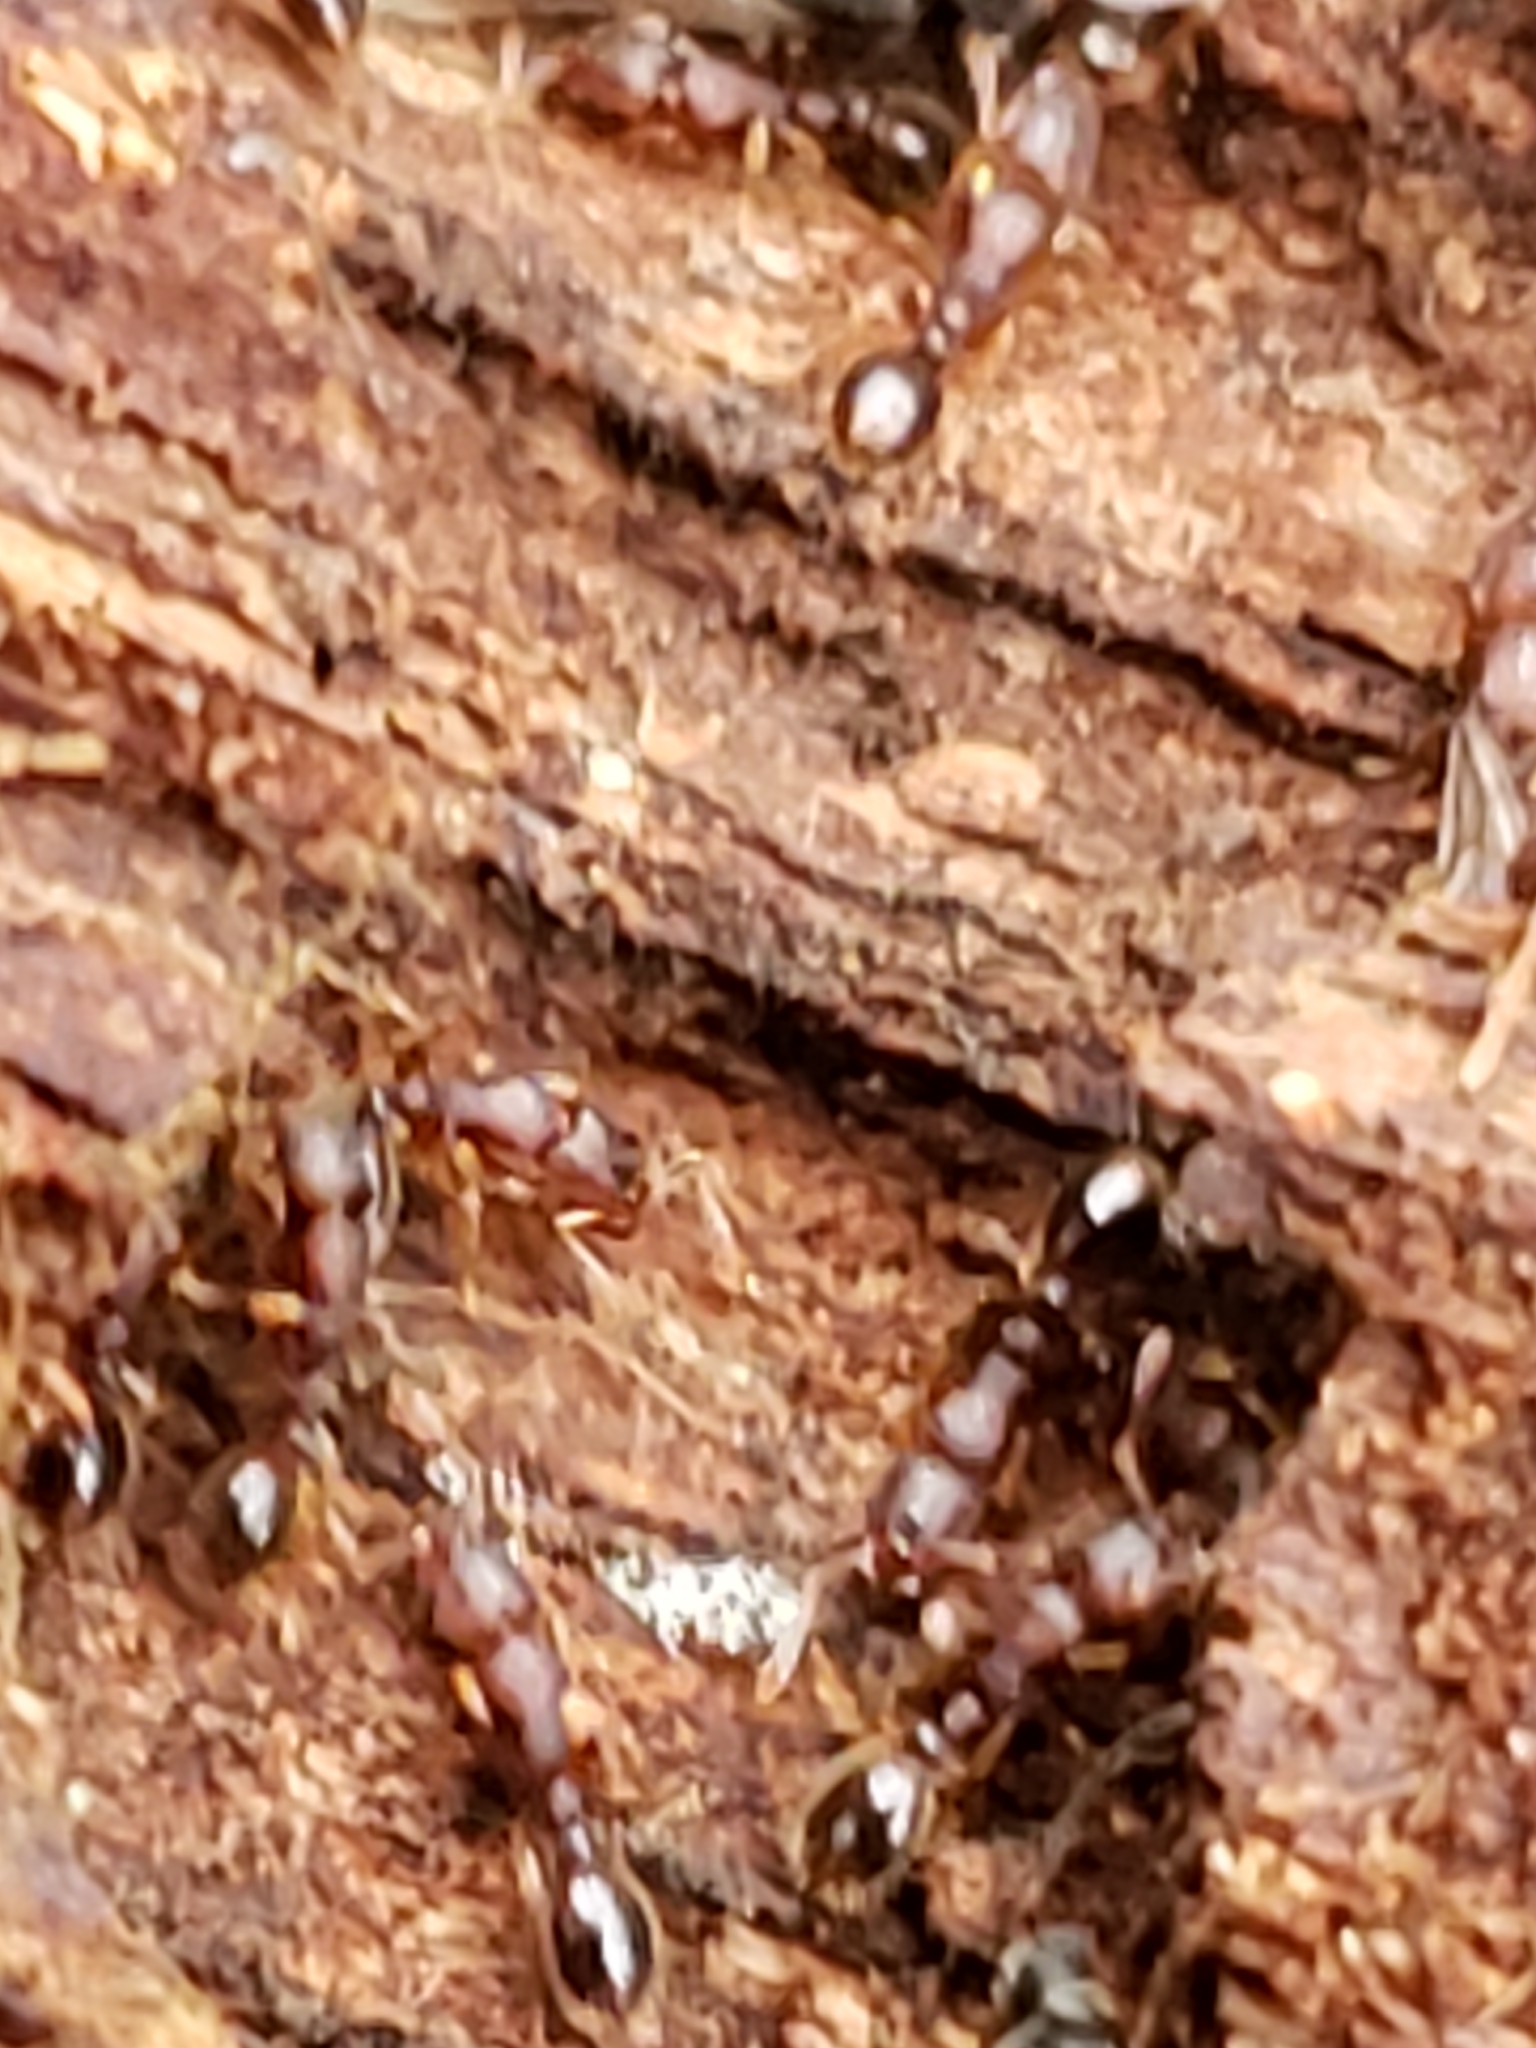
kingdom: Animalia
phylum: Arthropoda
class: Insecta
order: Hymenoptera
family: Formicidae
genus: Vollenhovia
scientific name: Vollenhovia emeryi
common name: Ant
